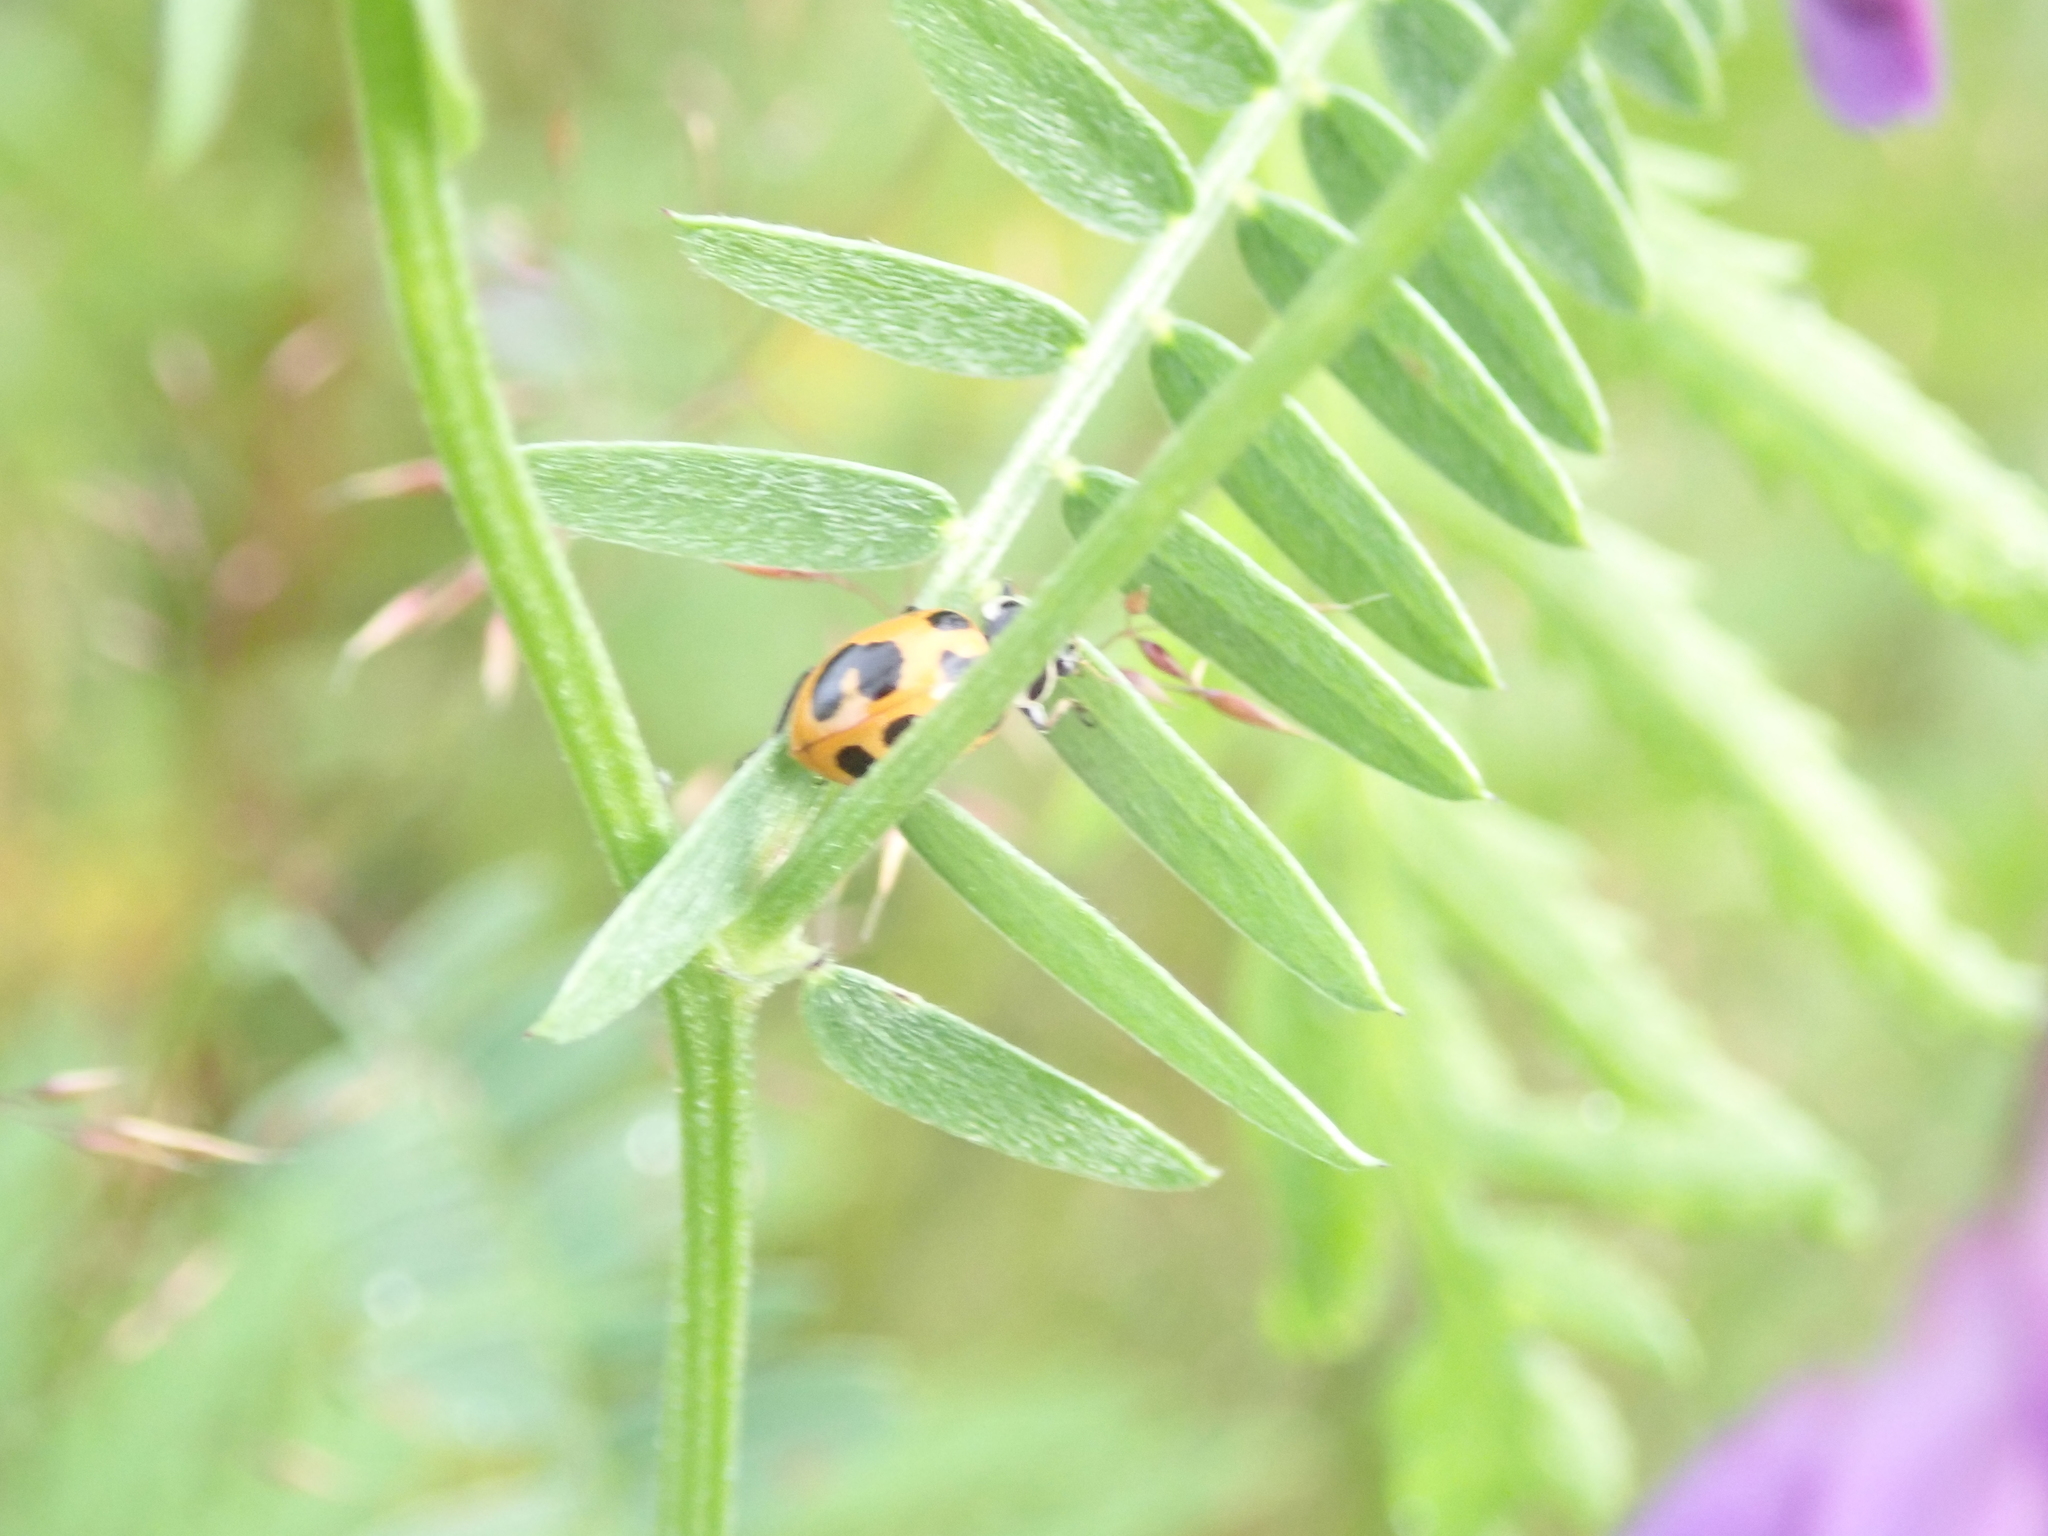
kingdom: Animalia
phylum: Arthropoda
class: Insecta
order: Coleoptera
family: Coccinellidae
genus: Hippodamia
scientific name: Hippodamia parenthesis
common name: Parenthesis lady beetle
